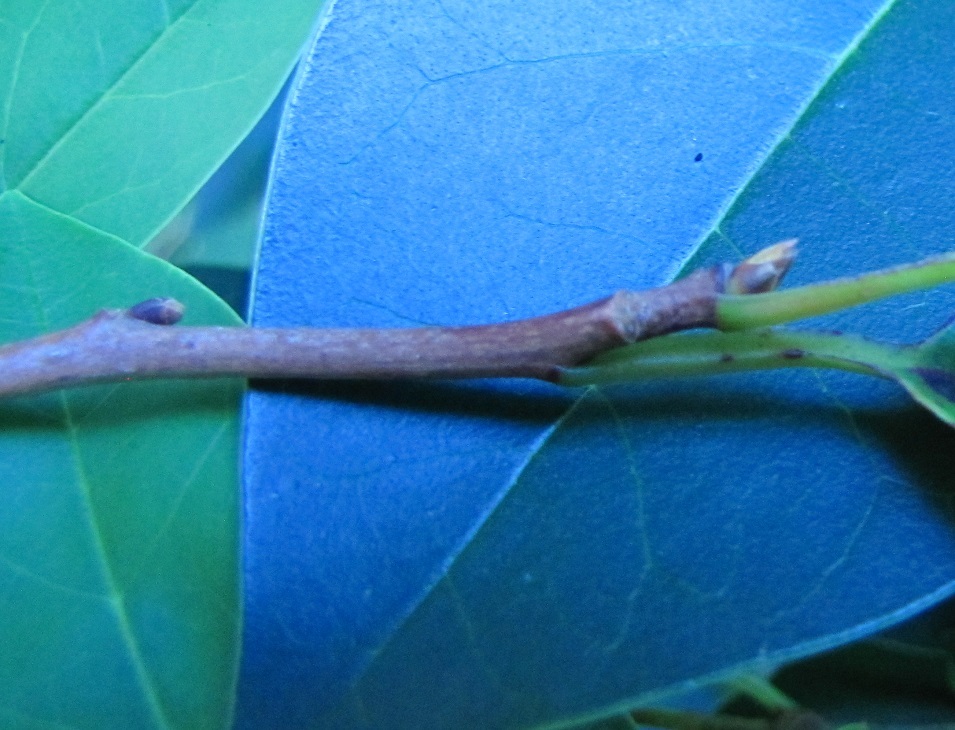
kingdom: Plantae
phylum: Tracheophyta
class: Magnoliopsida
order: Cornales
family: Nyssaceae
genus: Nyssa
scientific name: Nyssa sylvatica
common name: Black tupelo
